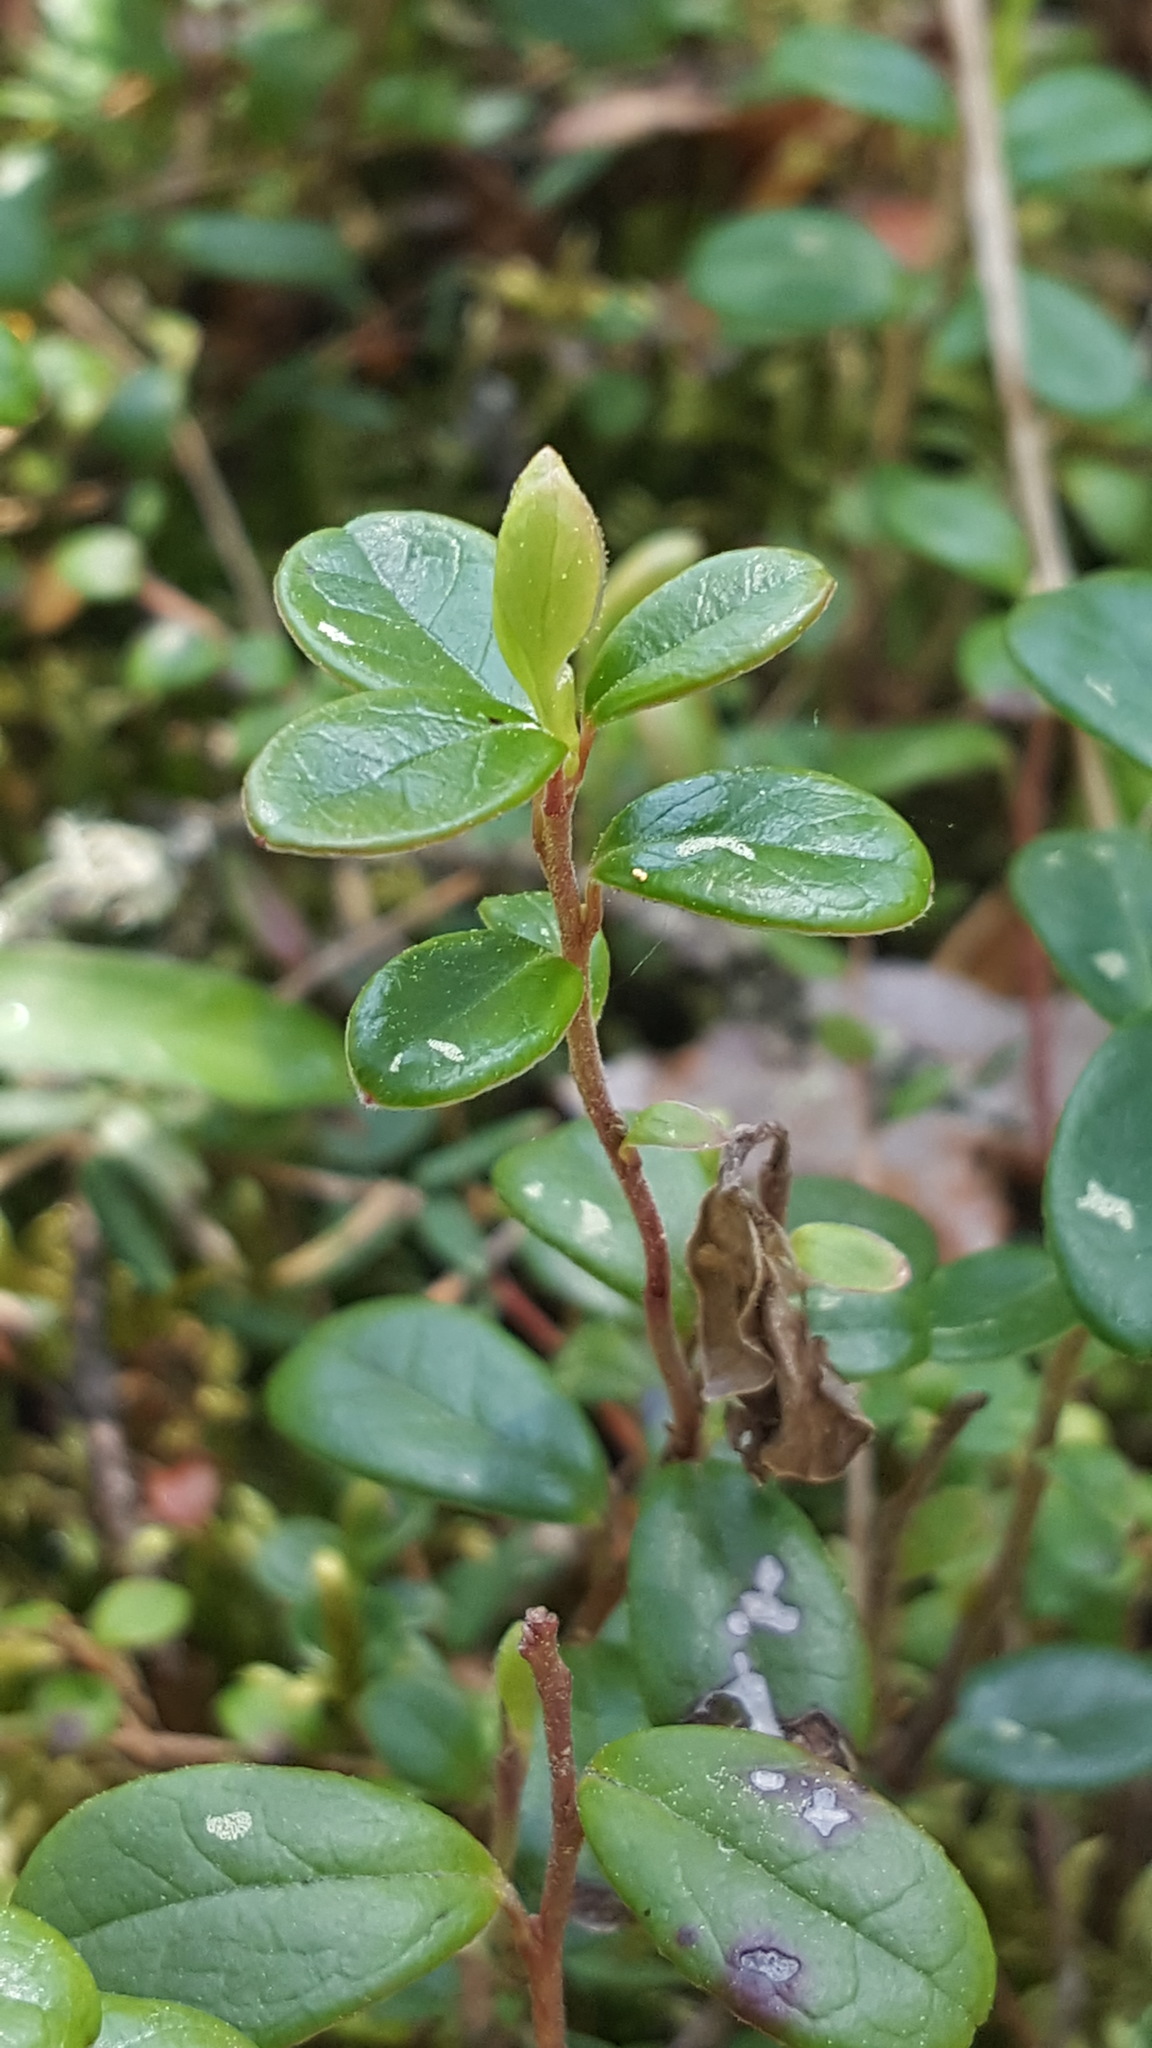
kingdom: Plantae
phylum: Tracheophyta
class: Magnoliopsida
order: Ericales
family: Ericaceae
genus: Vaccinium
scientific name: Vaccinium vitis-idaea
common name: Cowberry
